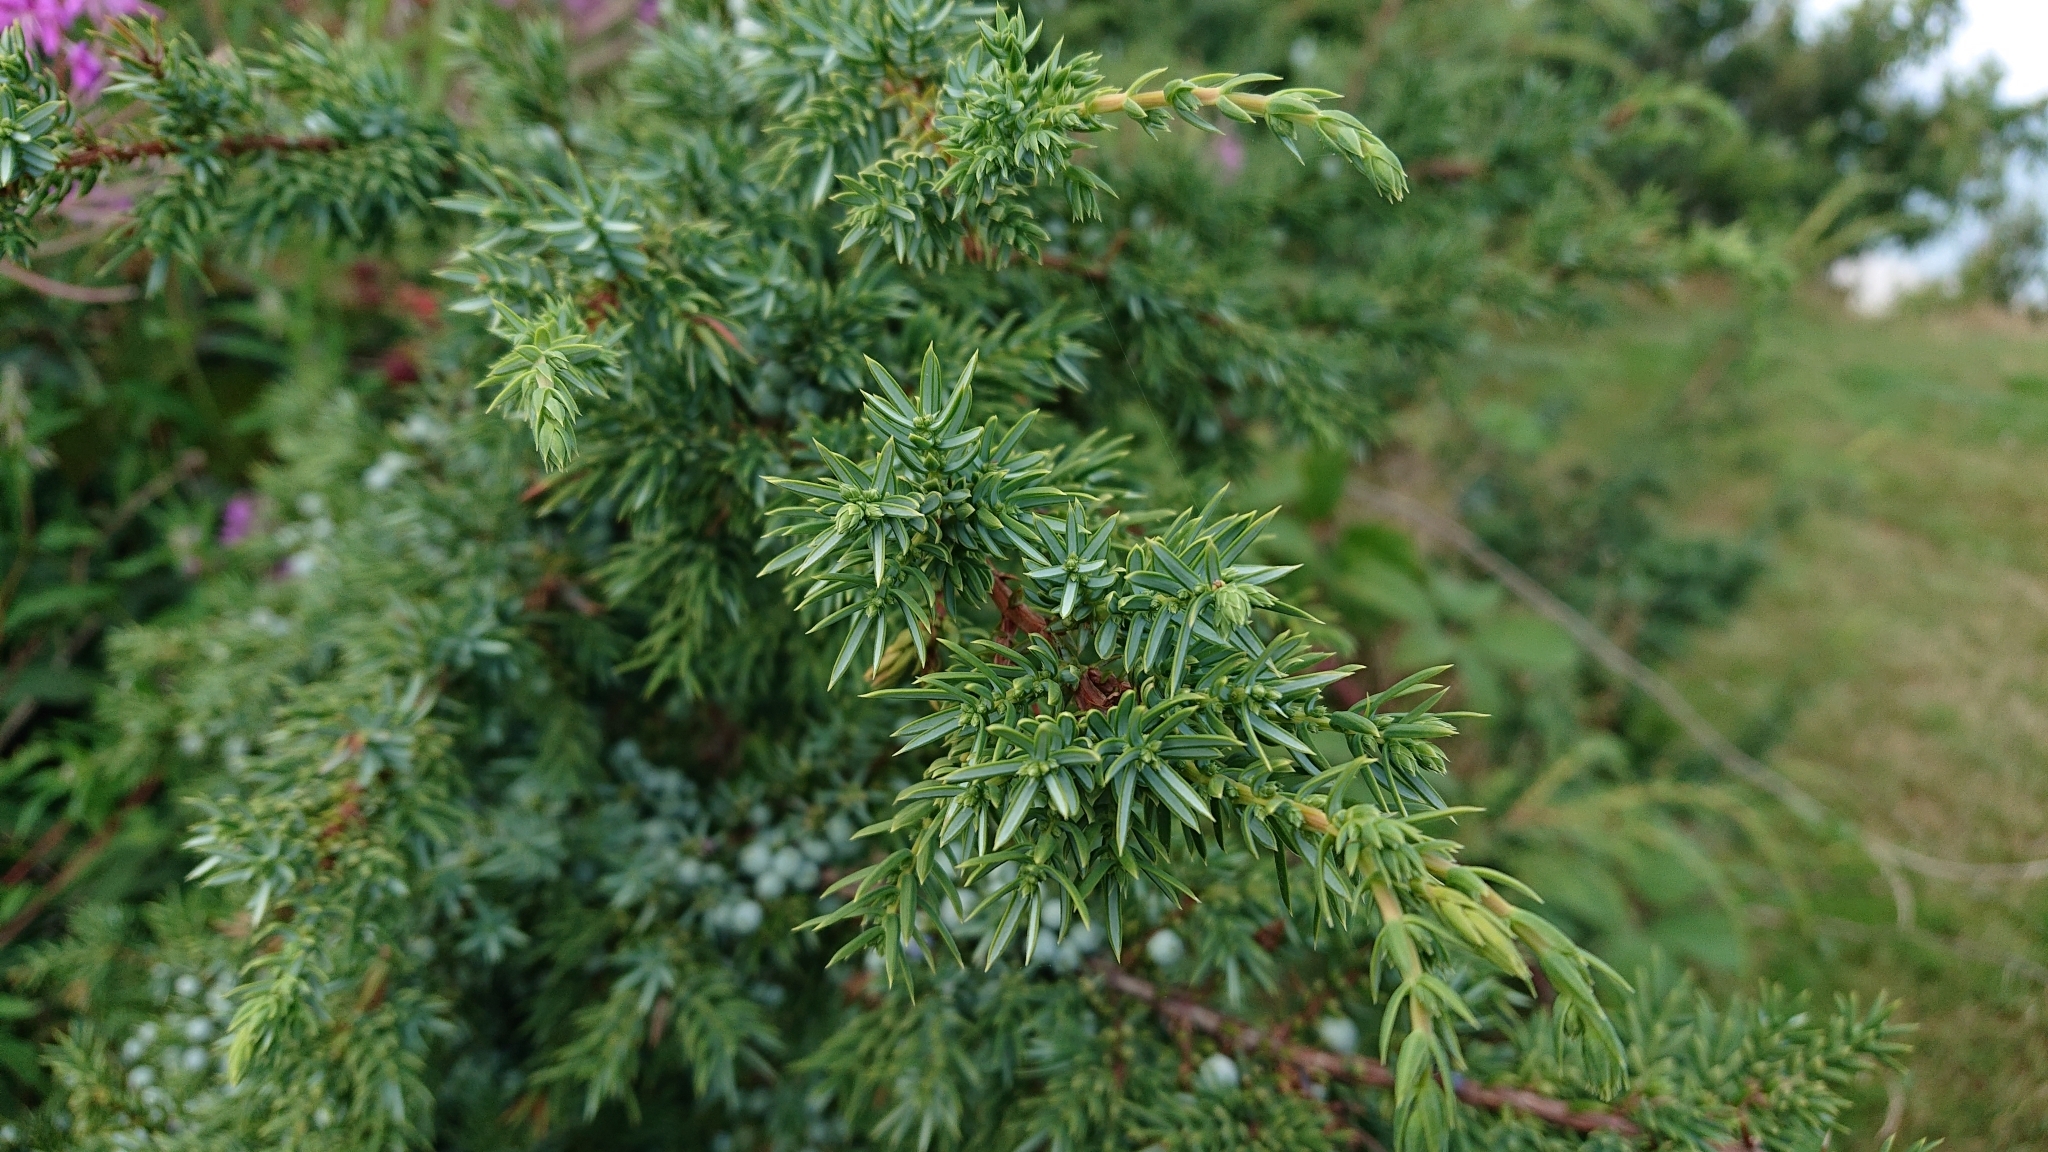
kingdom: Plantae
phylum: Tracheophyta
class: Pinopsida
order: Pinales
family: Cupressaceae
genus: Juniperus
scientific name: Juniperus communis
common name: Common juniper
